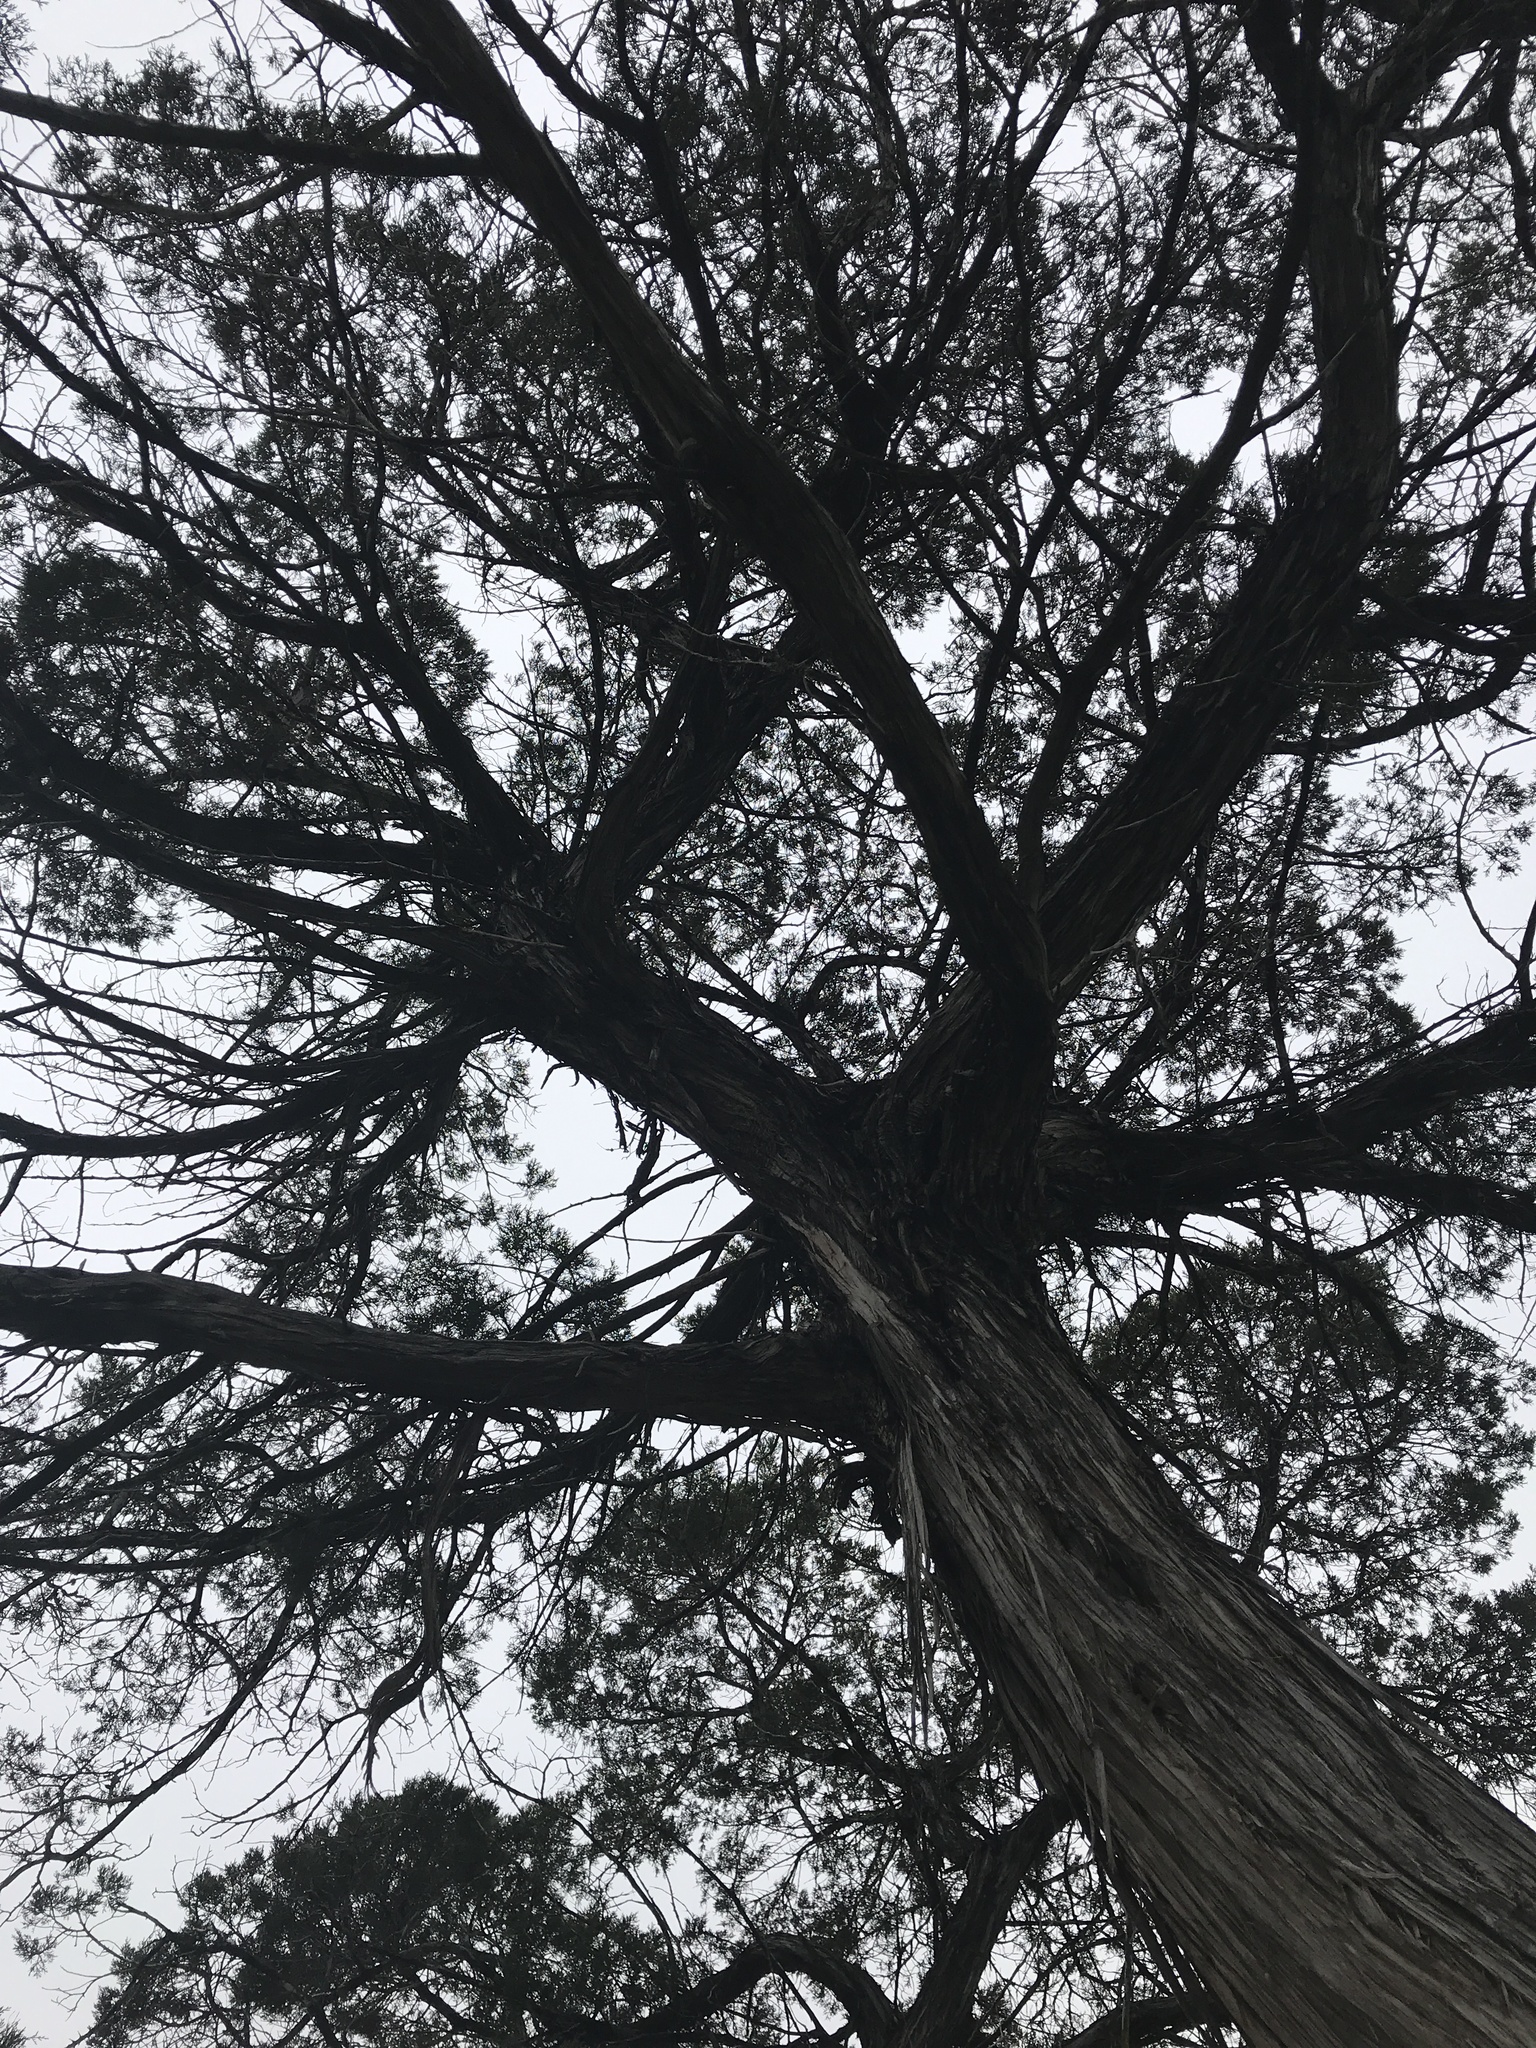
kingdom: Plantae
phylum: Tracheophyta
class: Pinopsida
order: Pinales
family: Cupressaceae
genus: Juniperus
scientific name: Juniperus ashei
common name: Mexican juniper
